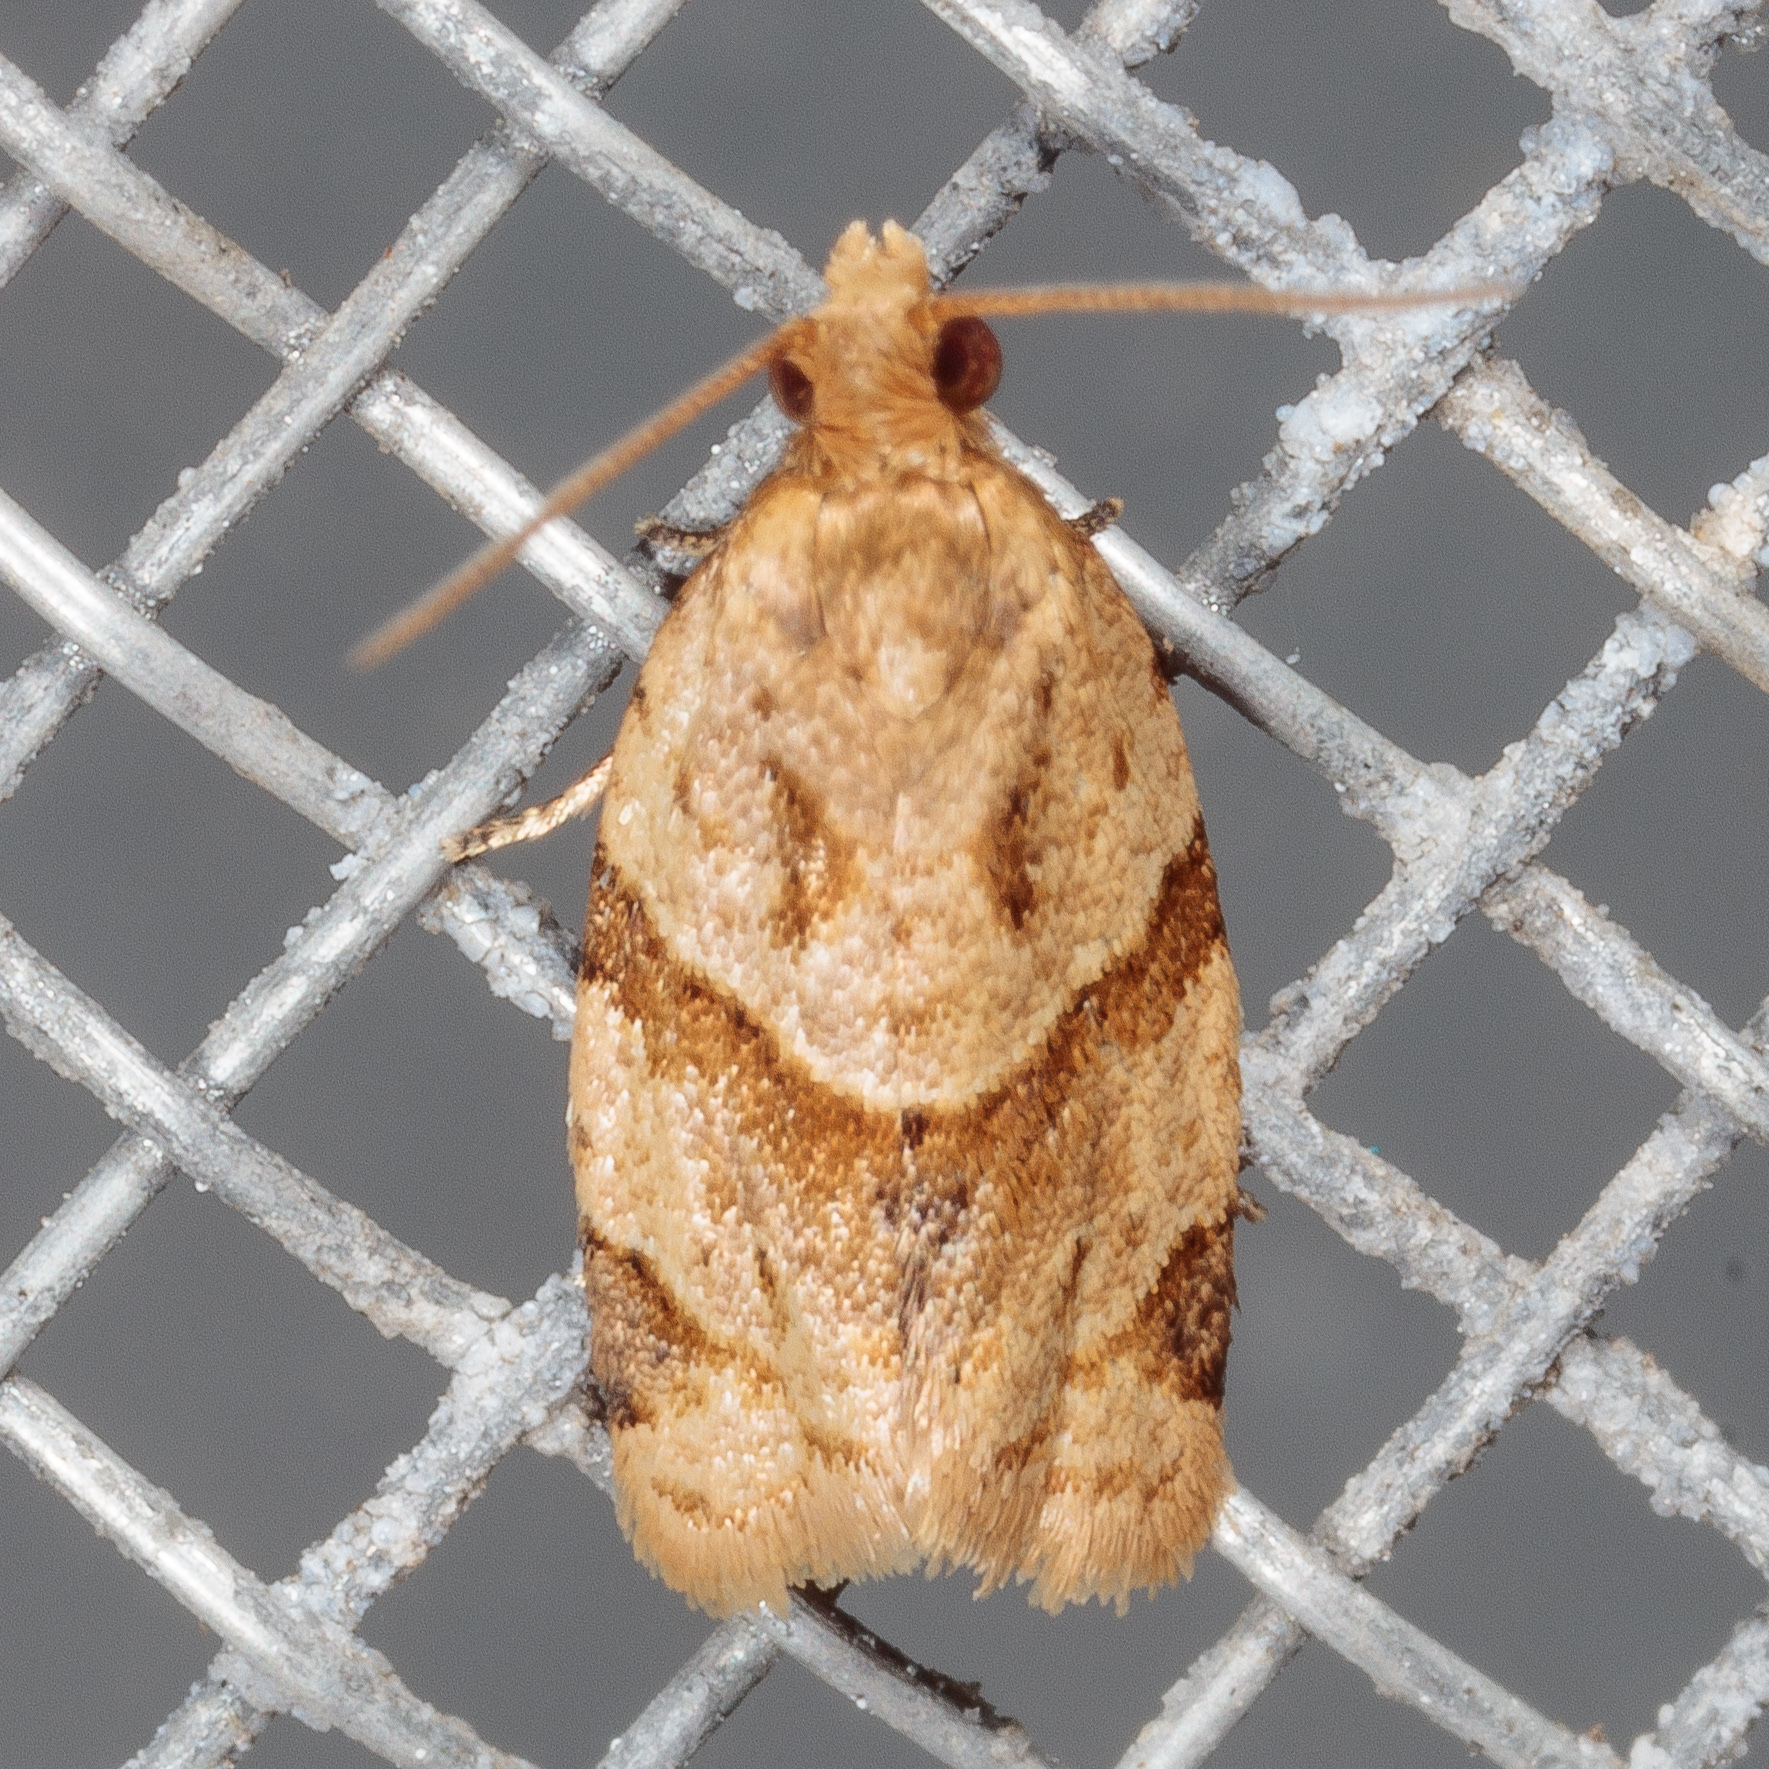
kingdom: Animalia
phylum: Arthropoda
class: Insecta
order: Lepidoptera
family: Tortricidae
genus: Clepsis
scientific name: Clepsis peritana
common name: Garden tortrix
